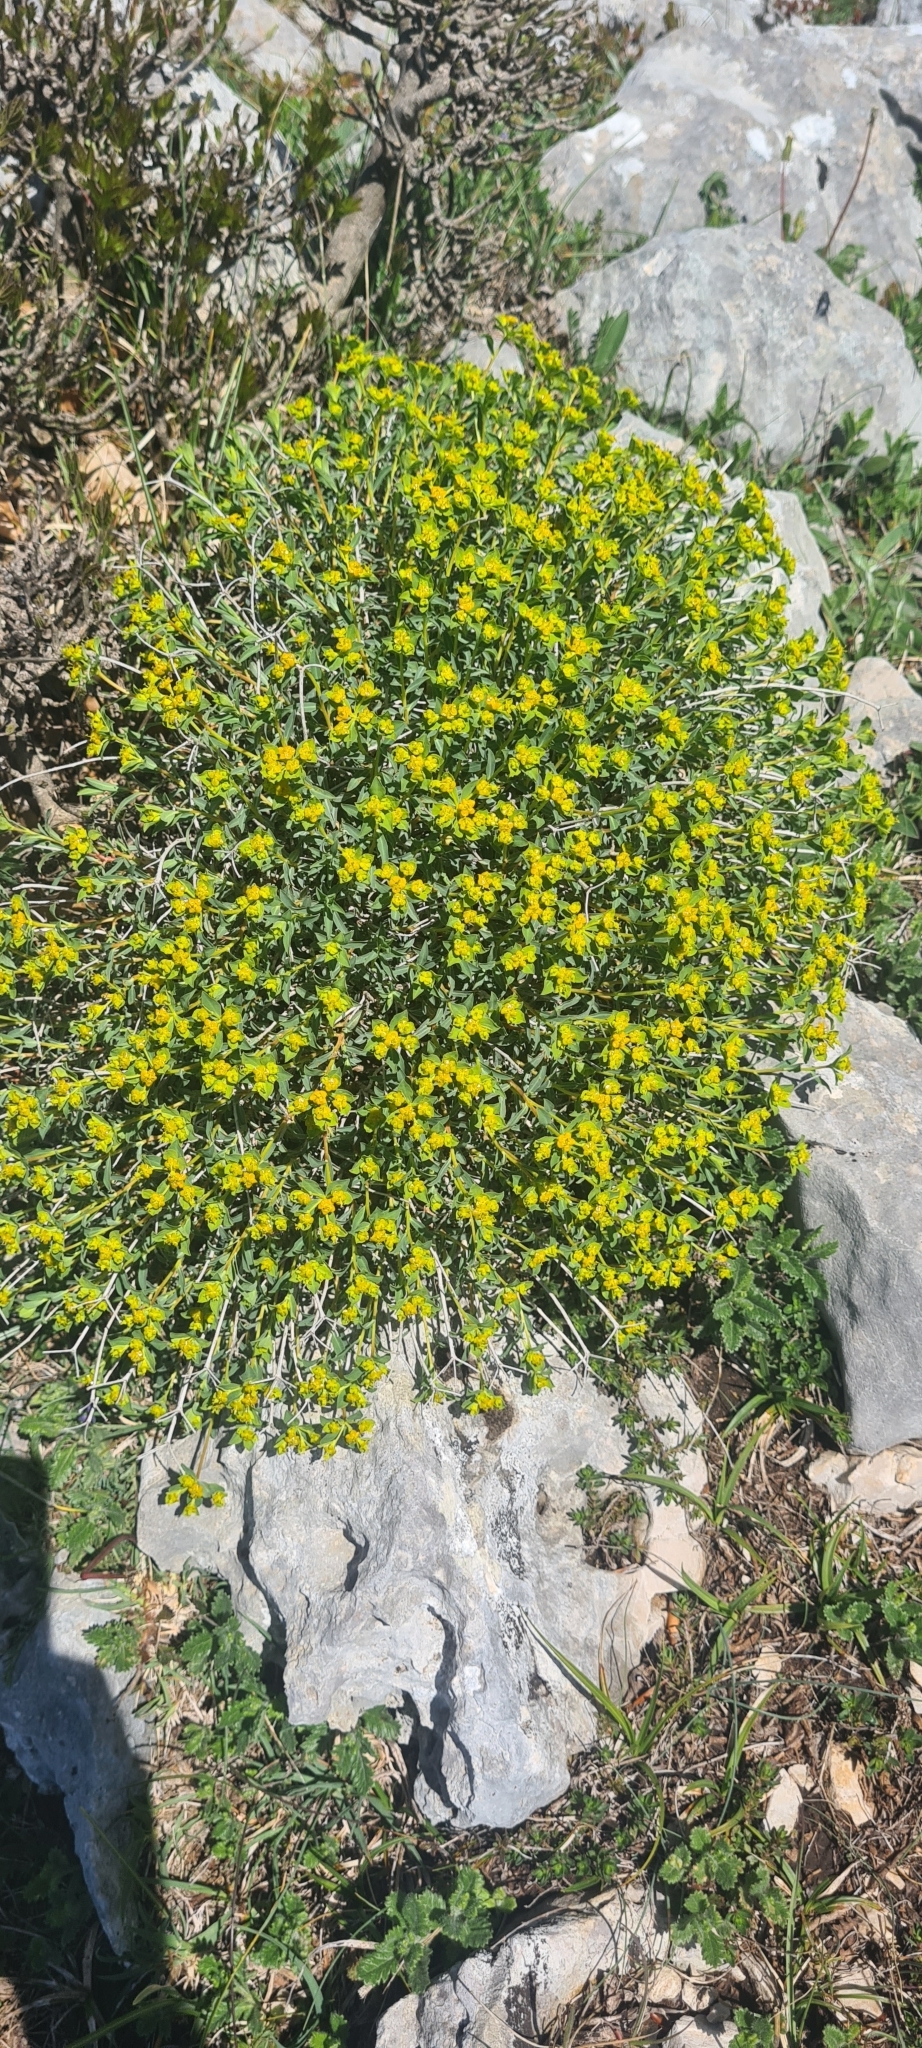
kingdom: Plantae
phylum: Tracheophyta
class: Magnoliopsida
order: Malpighiales
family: Euphorbiaceae
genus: Euphorbia
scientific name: Euphorbia spinosa
